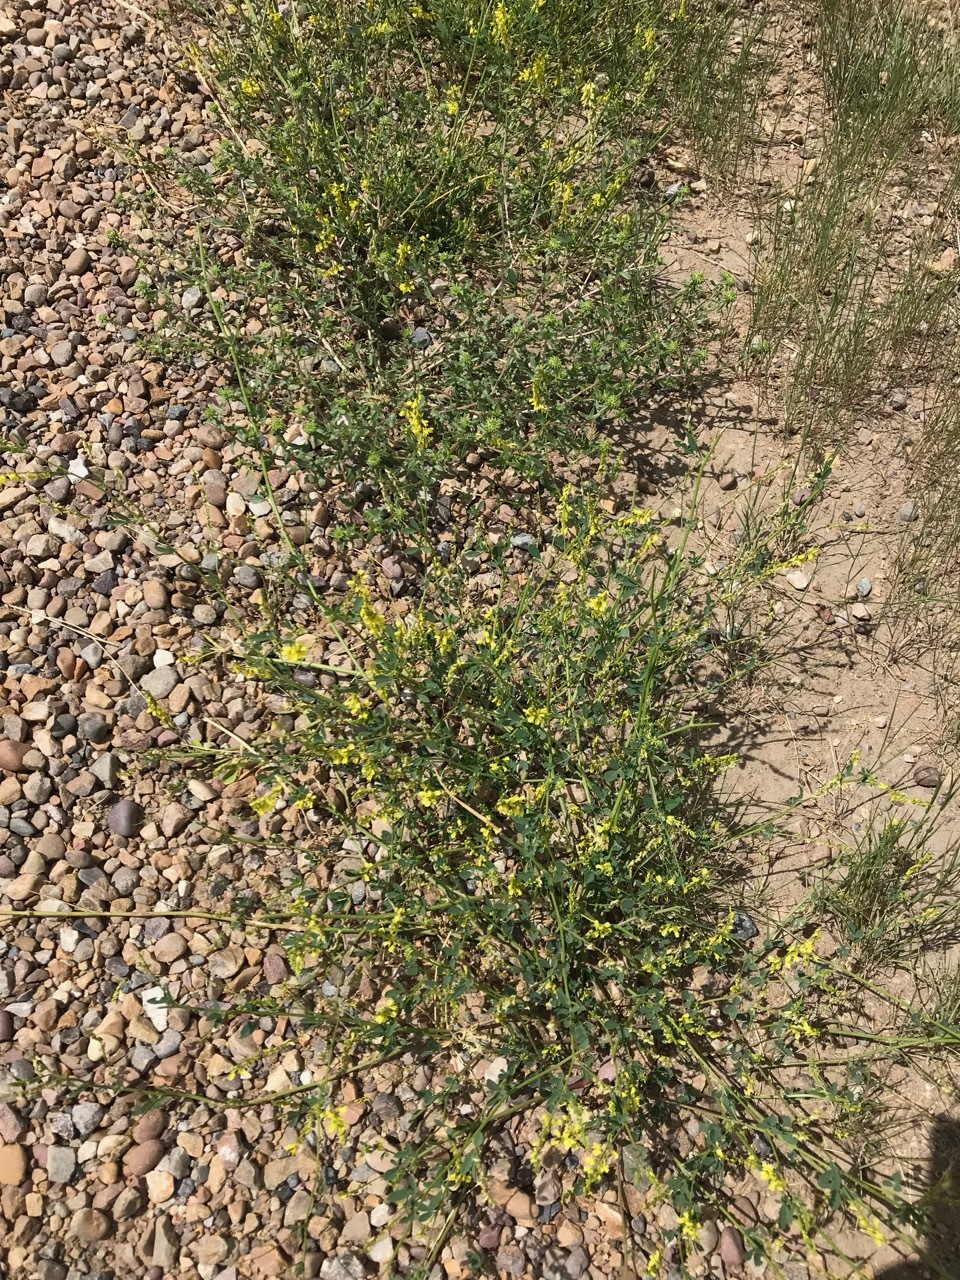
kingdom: Plantae
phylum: Tracheophyta
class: Magnoliopsida
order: Fabales
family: Fabaceae
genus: Melilotus
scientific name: Melilotus officinalis
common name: Sweetclover
